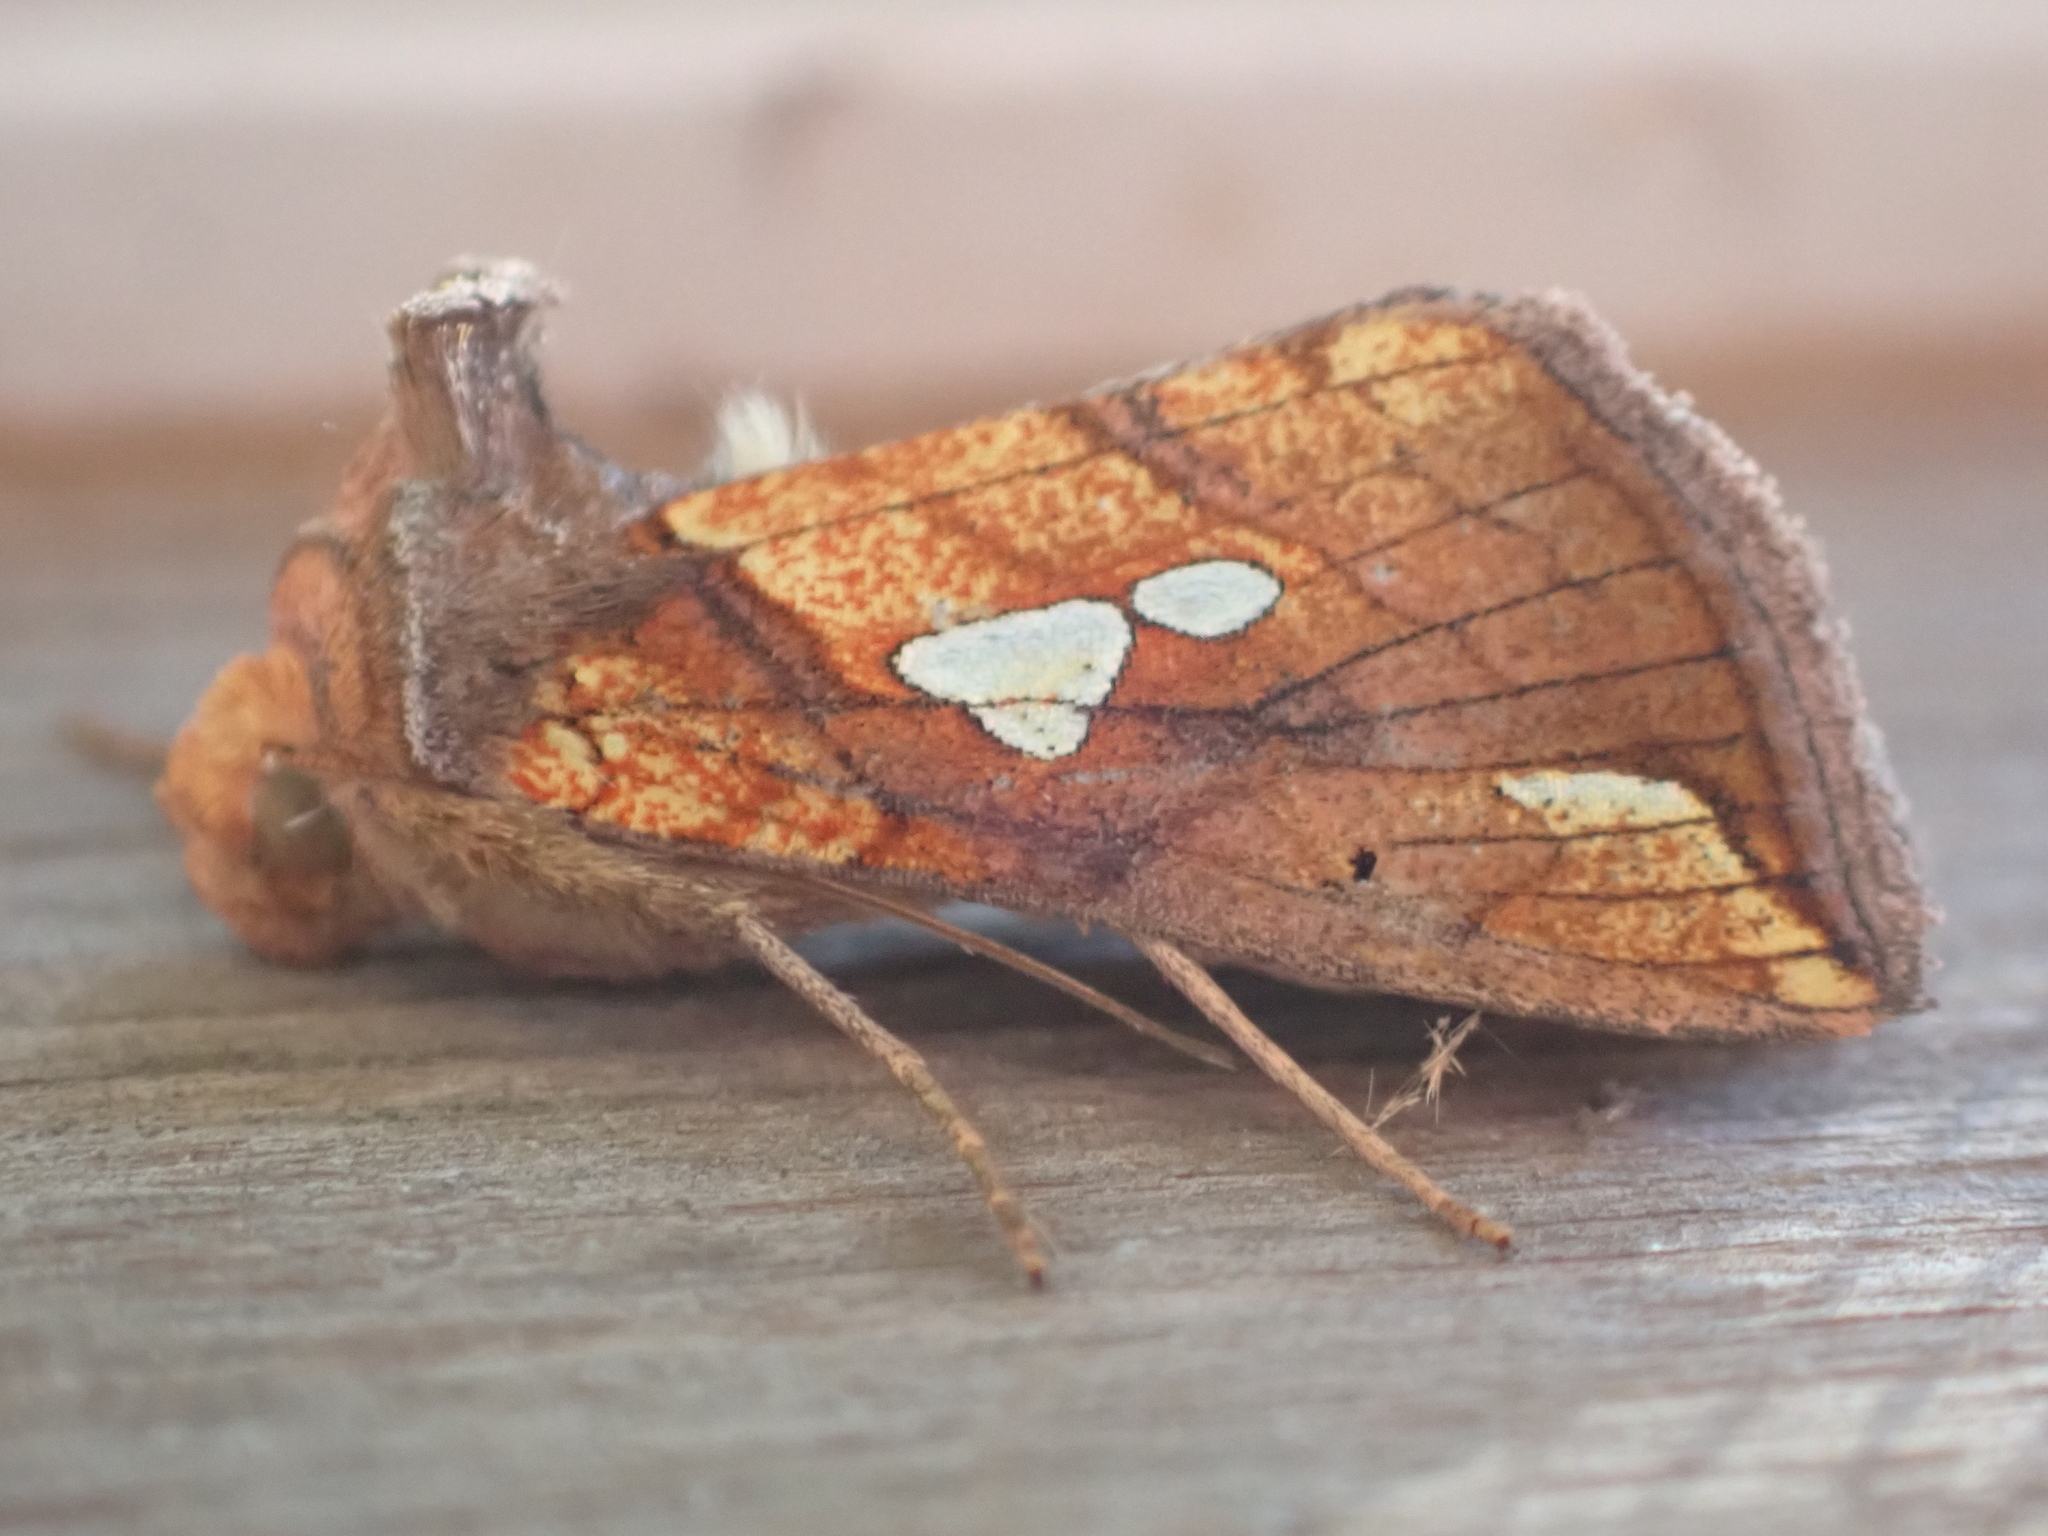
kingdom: Animalia
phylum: Arthropoda
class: Insecta
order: Lepidoptera
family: Noctuidae
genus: Plusia
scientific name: Plusia putnami
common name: Lempke's gold spot
